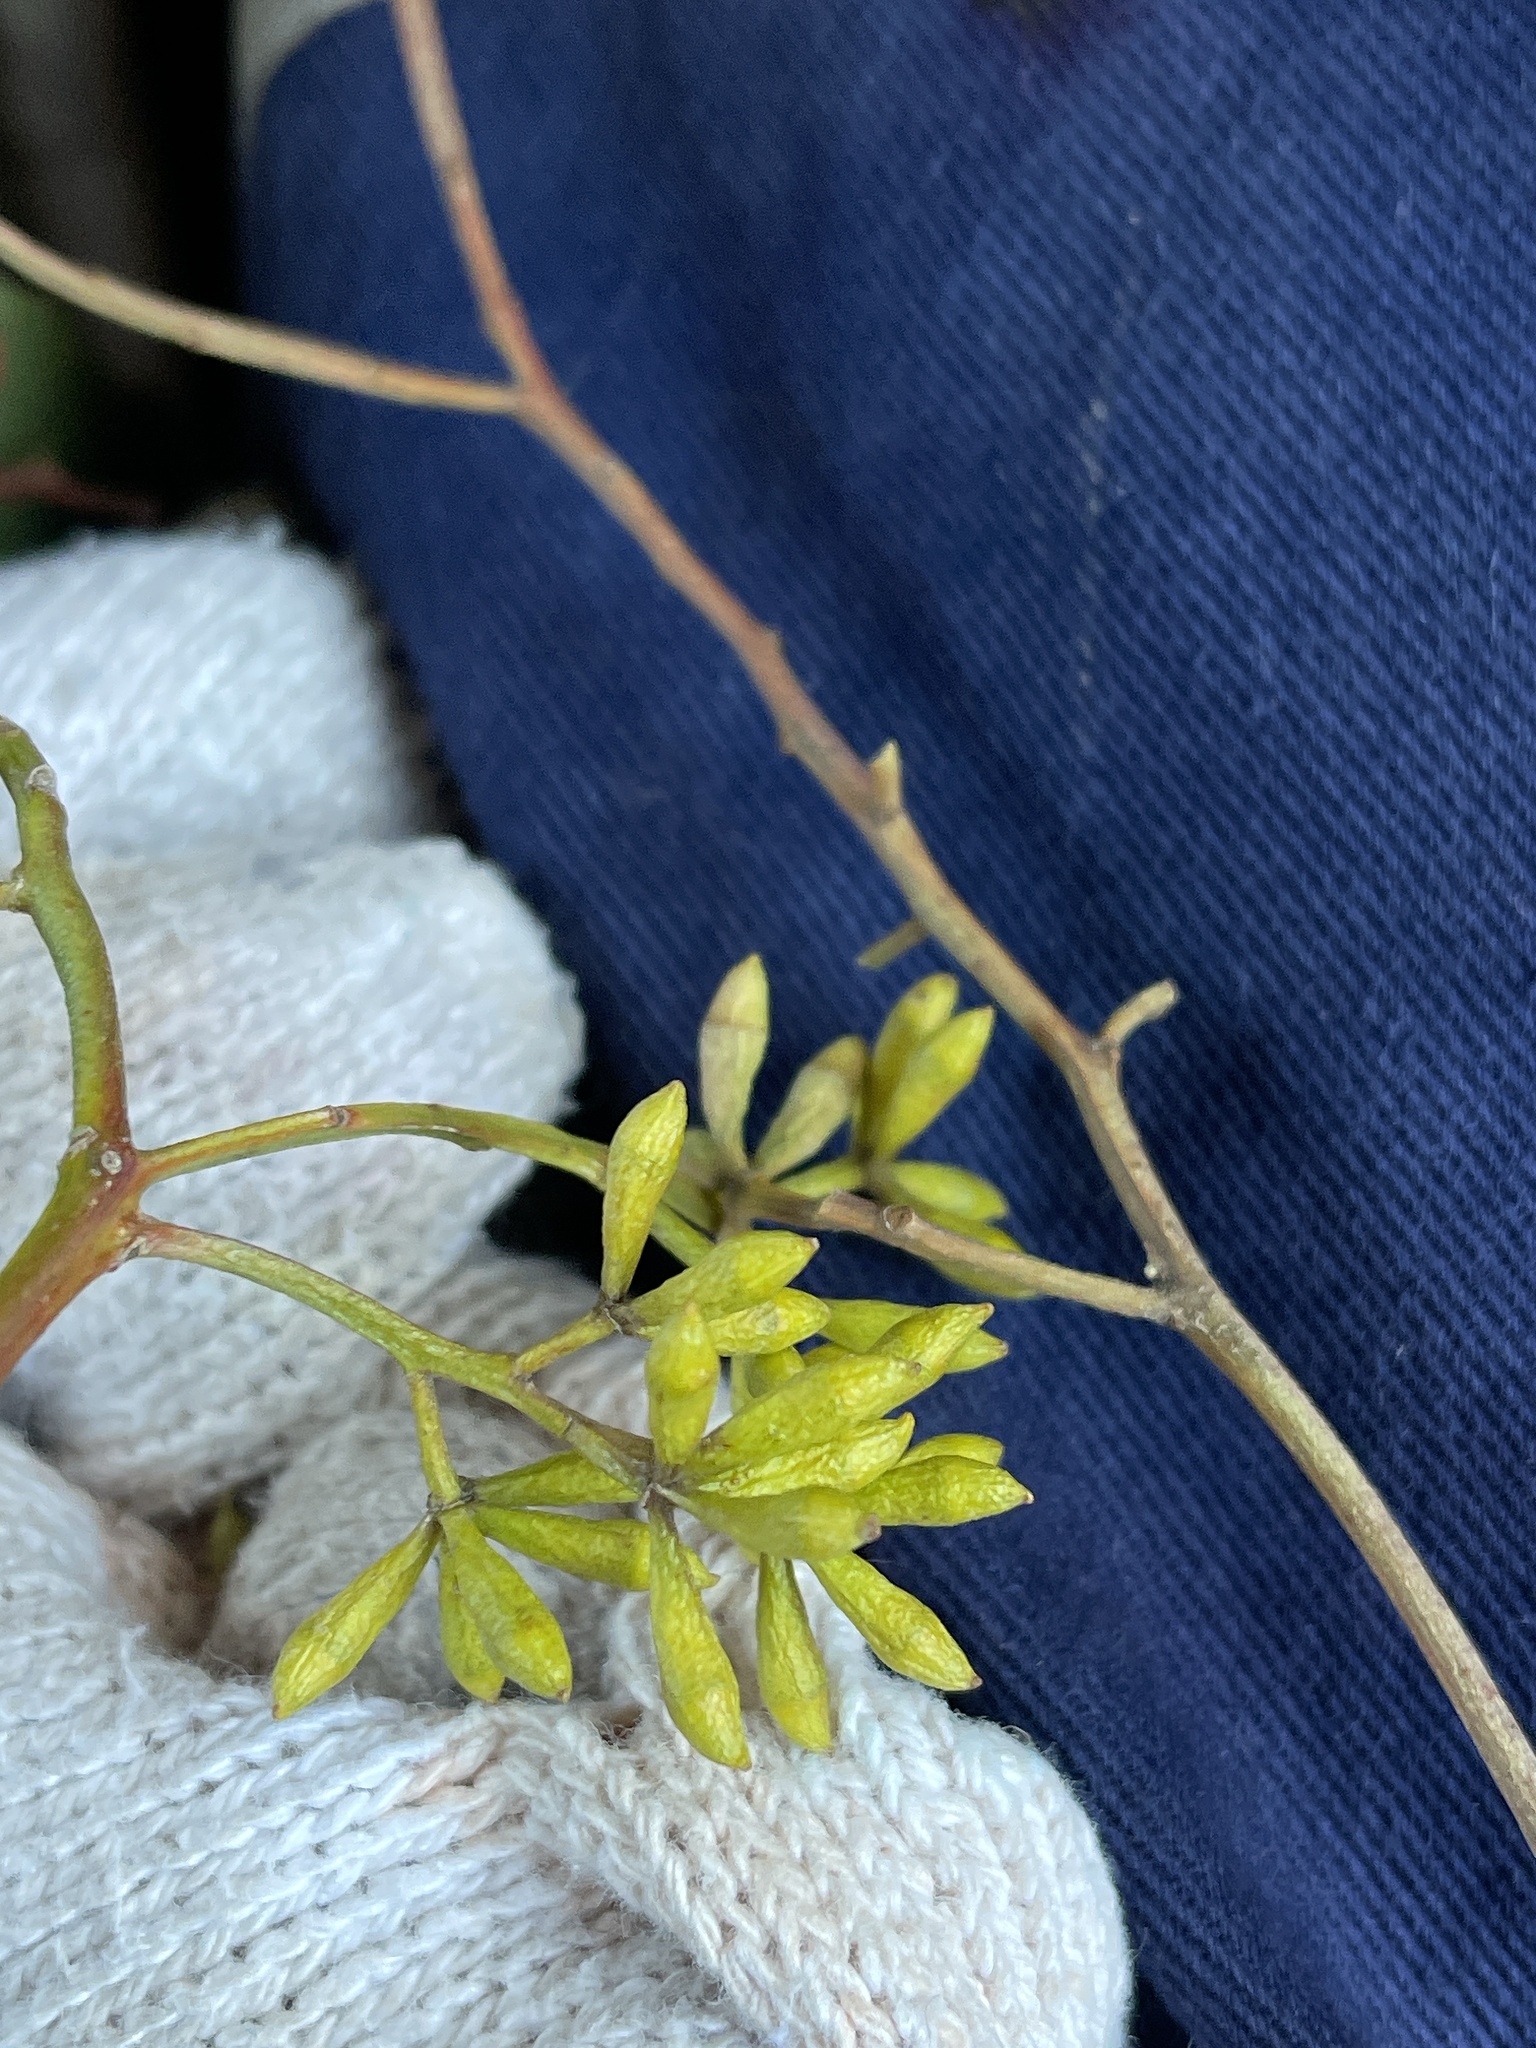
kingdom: Plantae
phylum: Tracheophyta
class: Magnoliopsida
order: Myrtales
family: Myrtaceae
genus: Eucalyptus
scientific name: Eucalyptus microcarpa
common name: Grey-box
